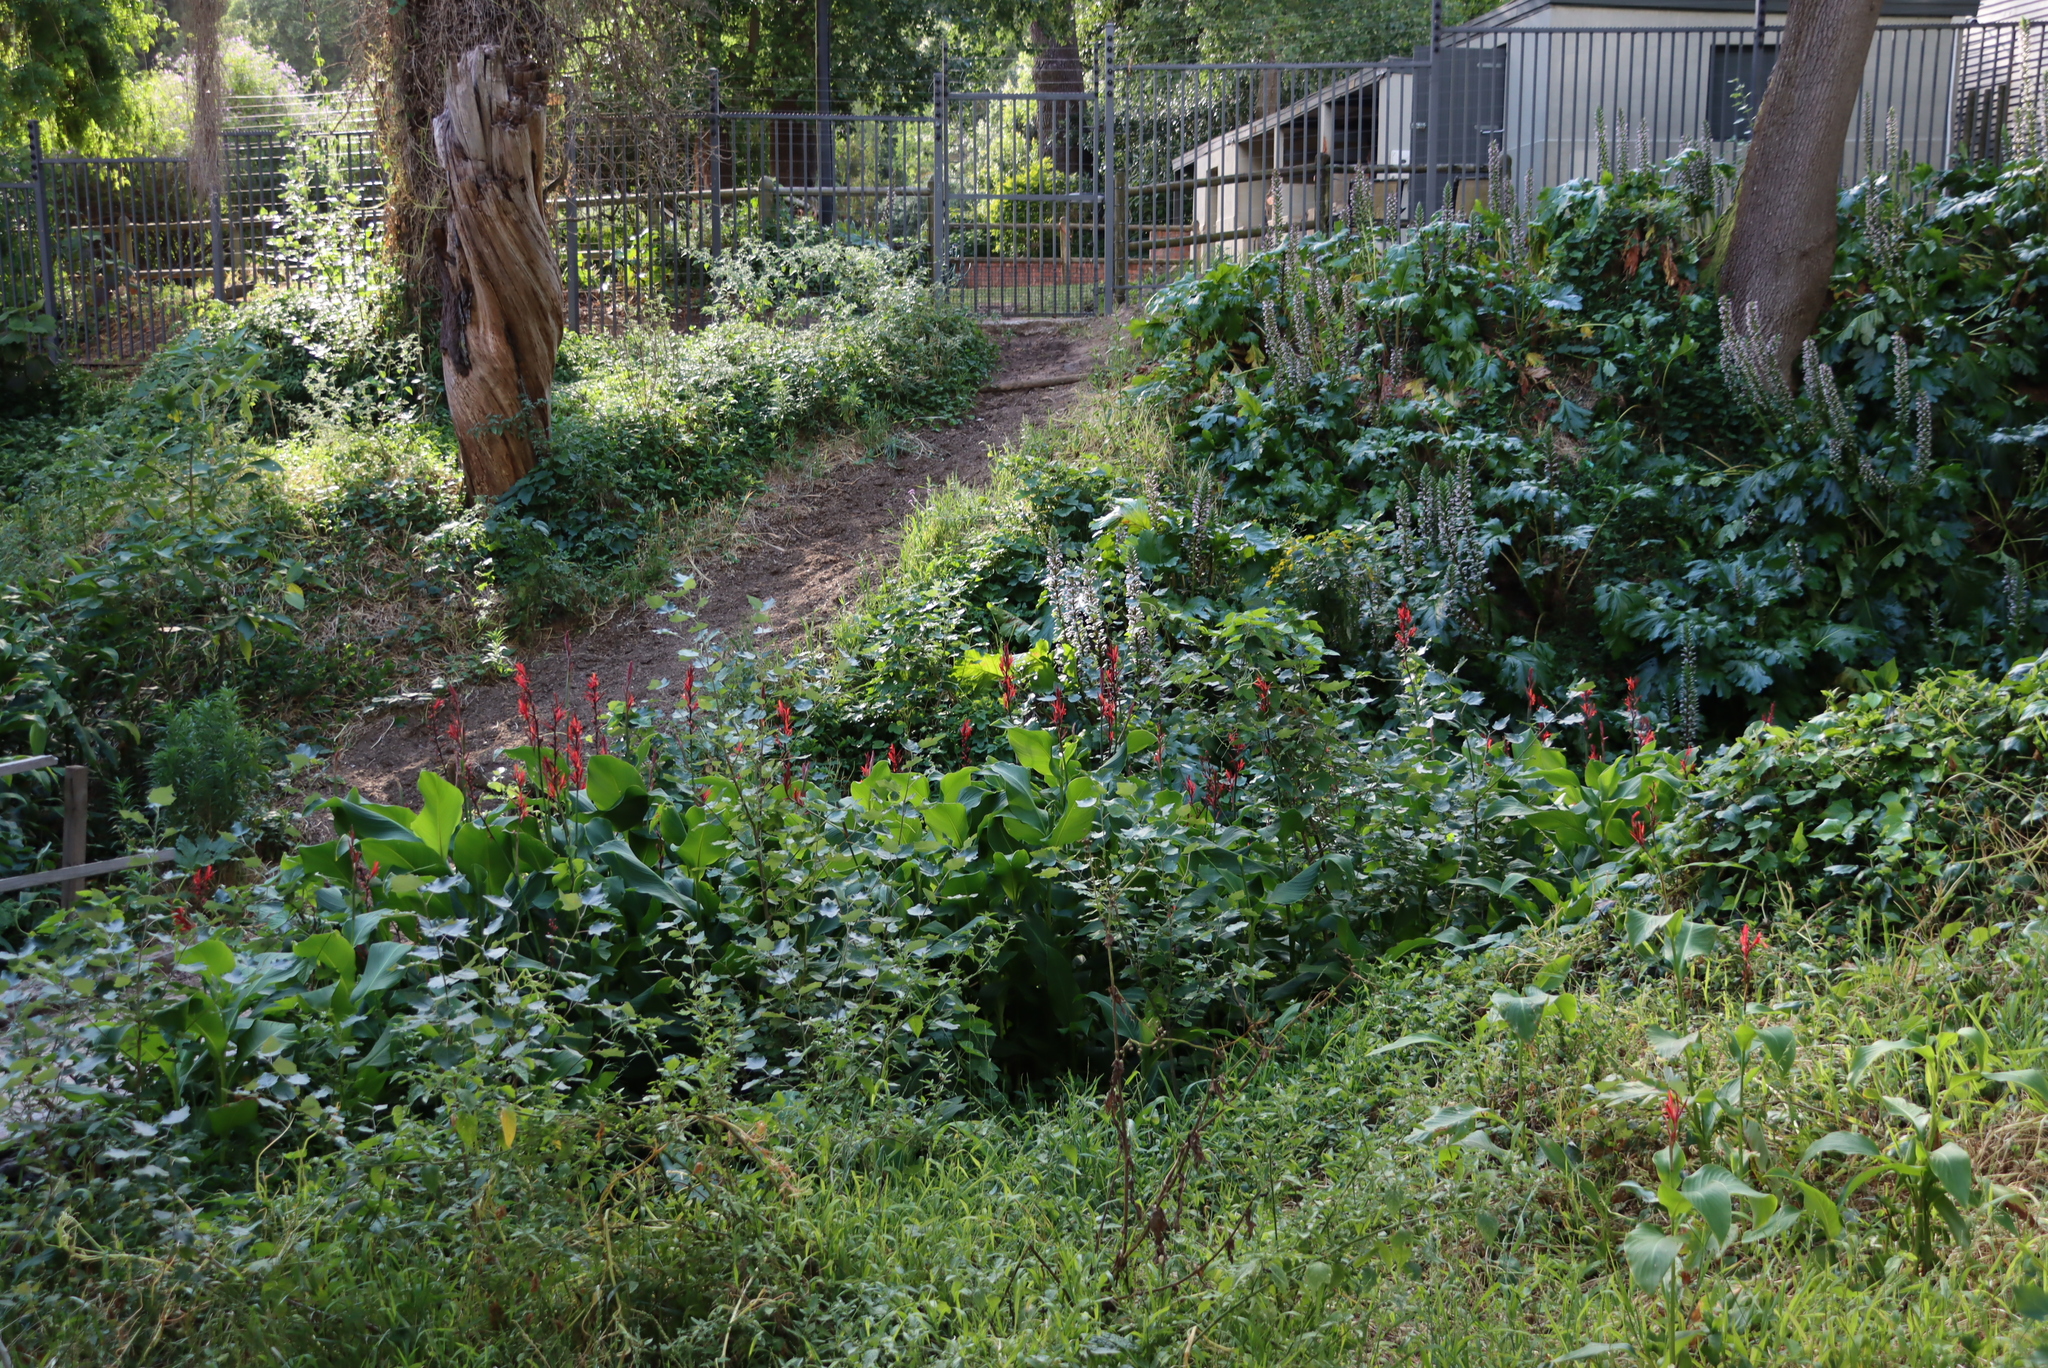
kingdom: Plantae
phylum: Tracheophyta
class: Liliopsida
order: Zingiberales
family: Cannaceae
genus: Canna
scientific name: Canna indica
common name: Indian shot
